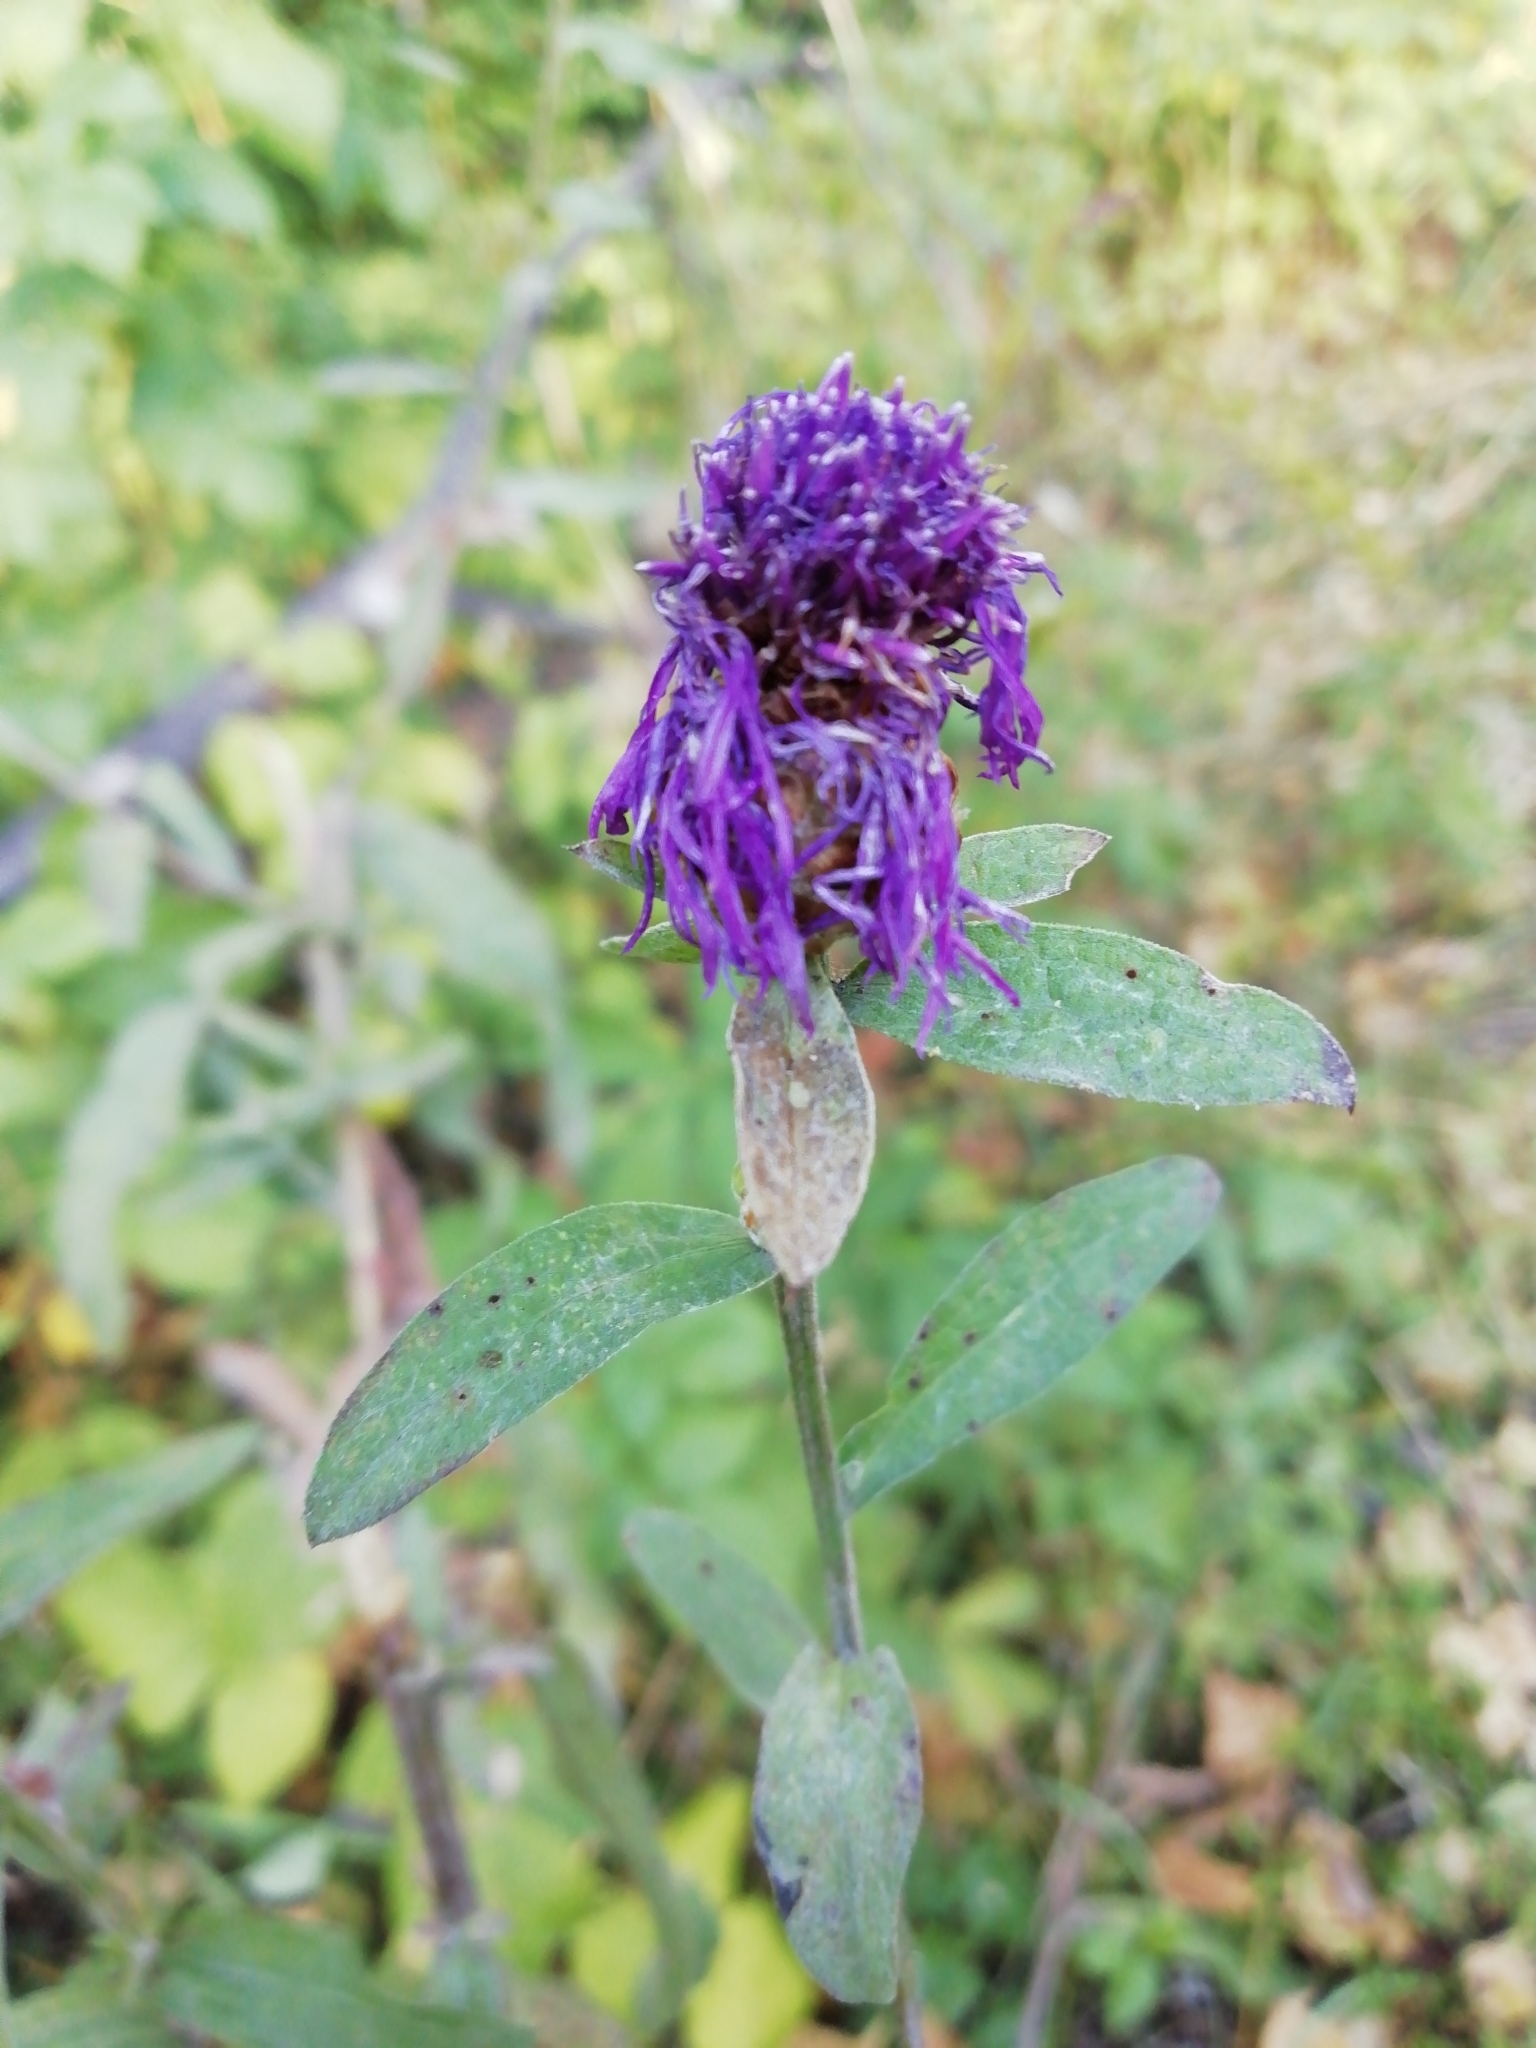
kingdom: Plantae
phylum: Tracheophyta
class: Magnoliopsida
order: Asterales
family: Asteraceae
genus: Centaurea
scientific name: Centaurea jacea
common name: Brown knapweed
